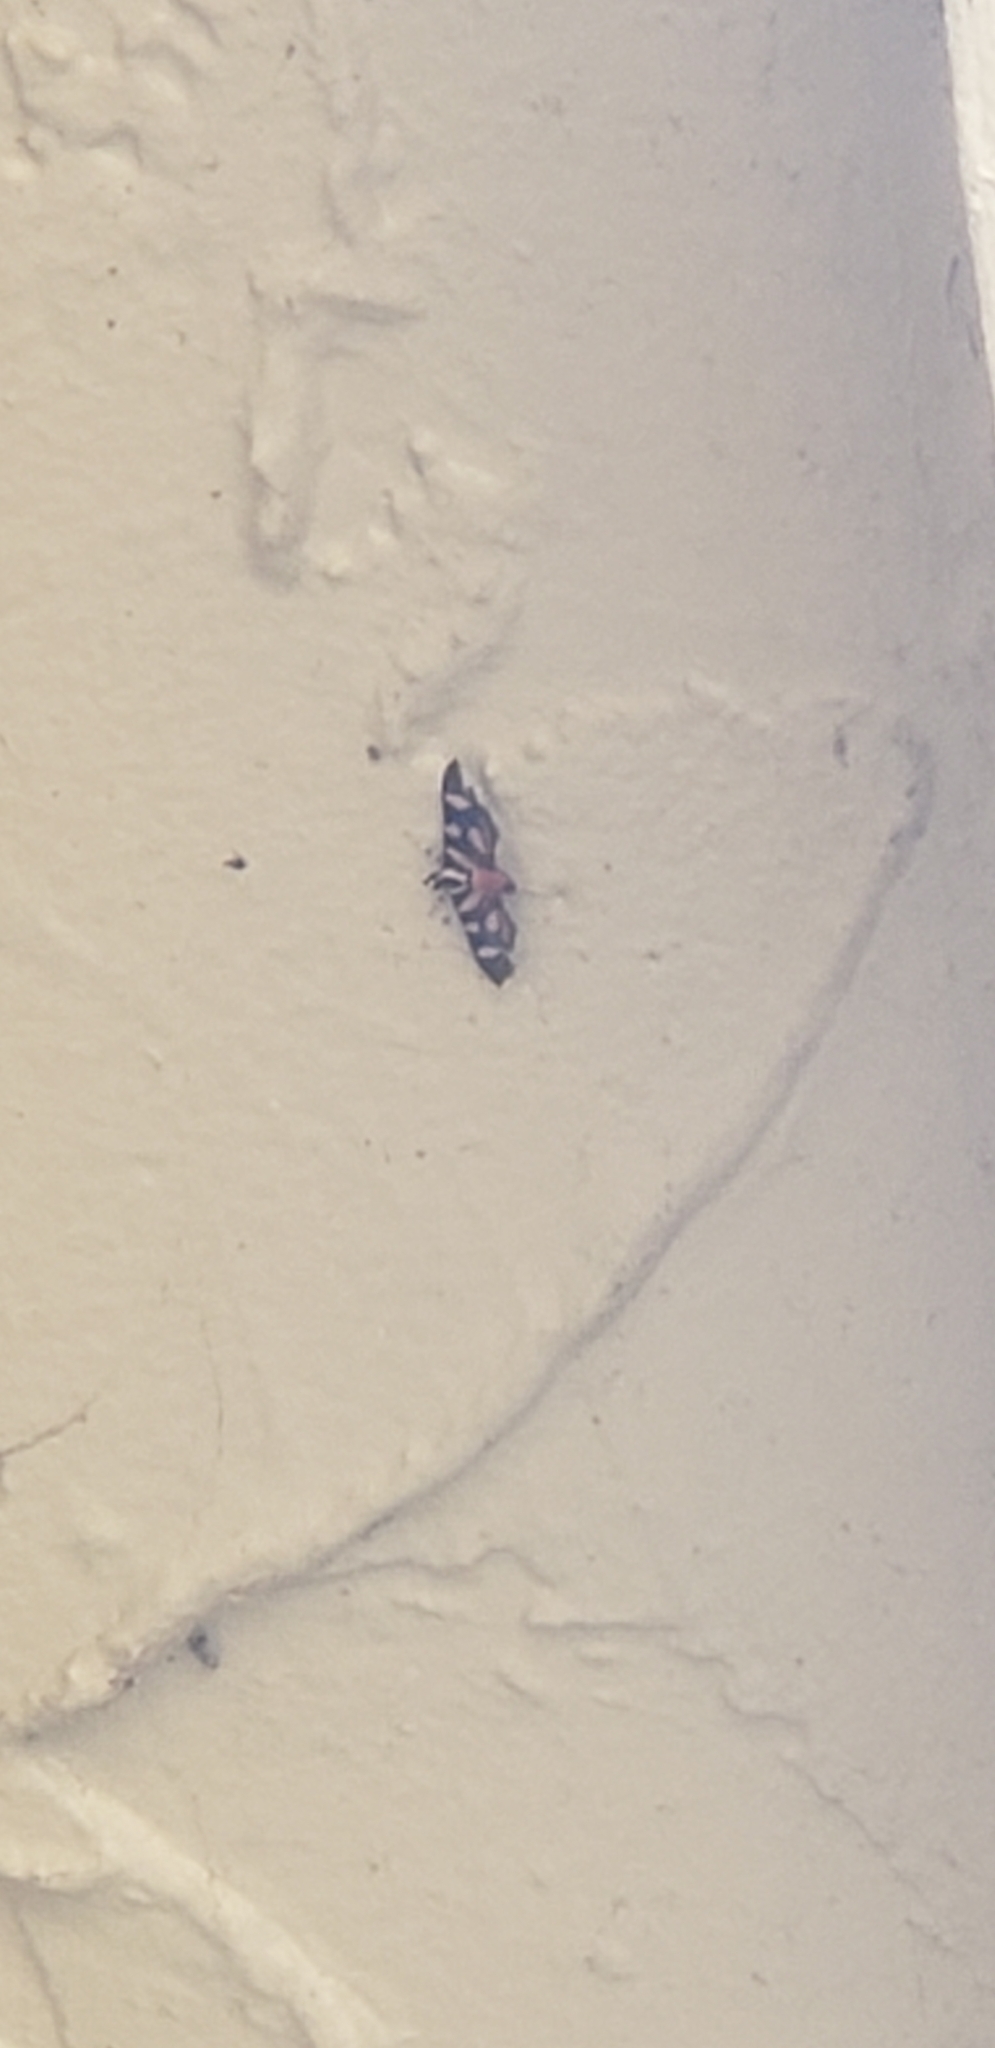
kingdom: Animalia
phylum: Arthropoda
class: Insecta
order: Lepidoptera
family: Crambidae
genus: Syngamia
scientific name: Syngamia florella
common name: Orange-spotted flower moth
